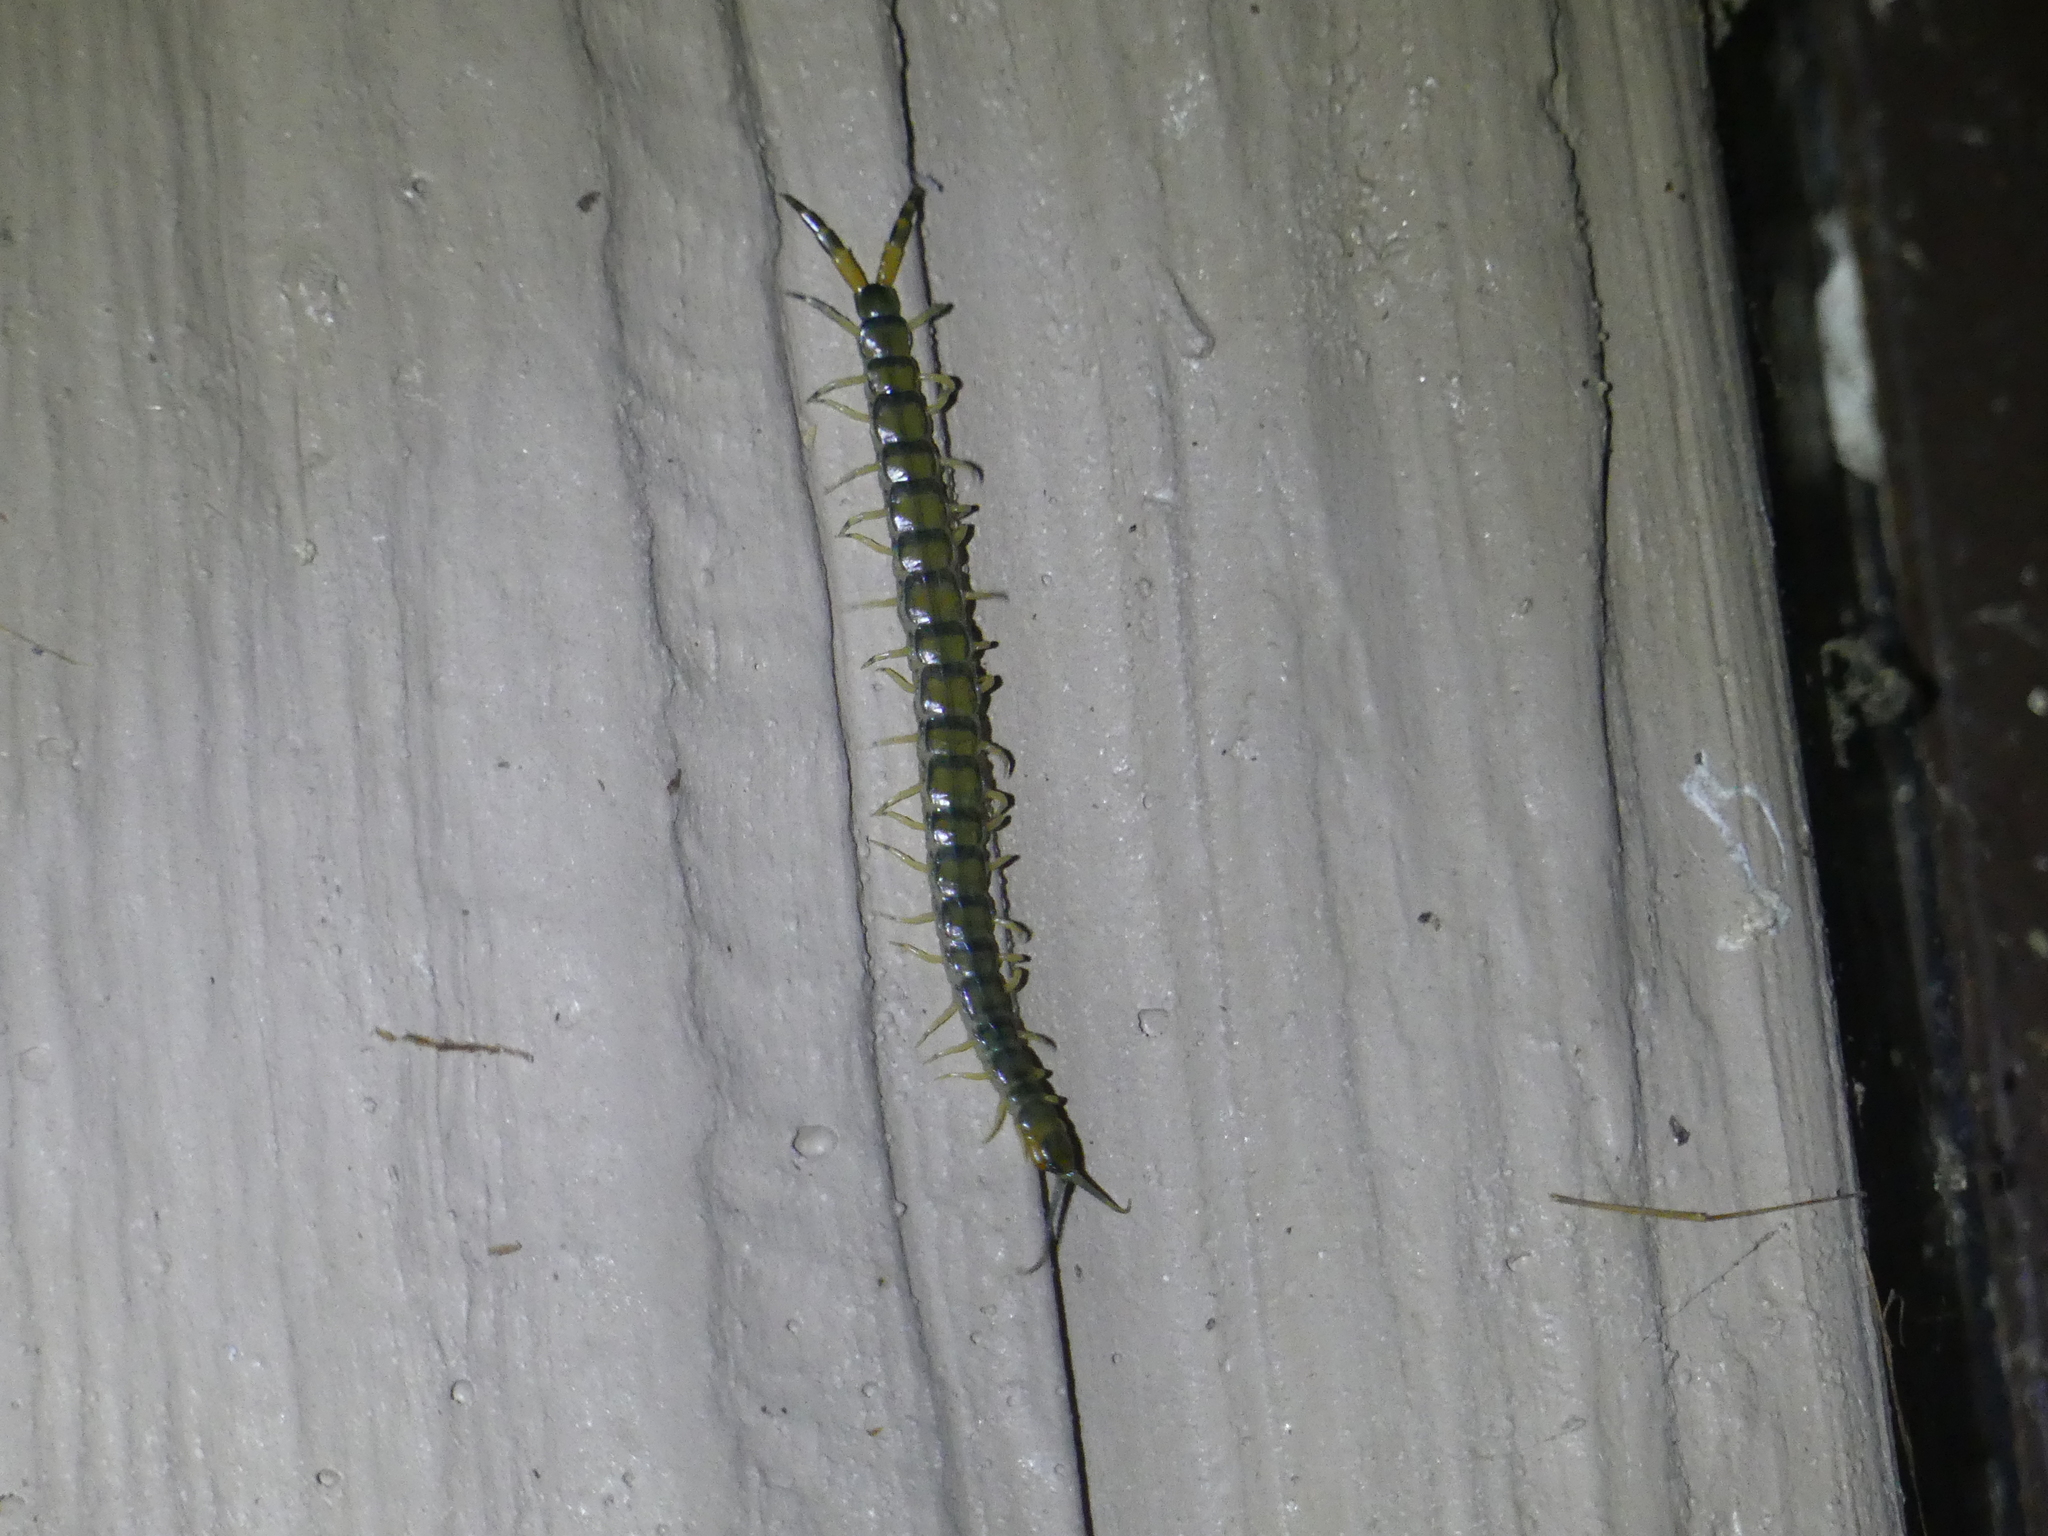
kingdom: Animalia
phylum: Arthropoda
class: Chilopoda
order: Scolopendromorpha
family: Scolopendridae
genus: Hemiscolopendra
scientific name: Hemiscolopendra marginata
